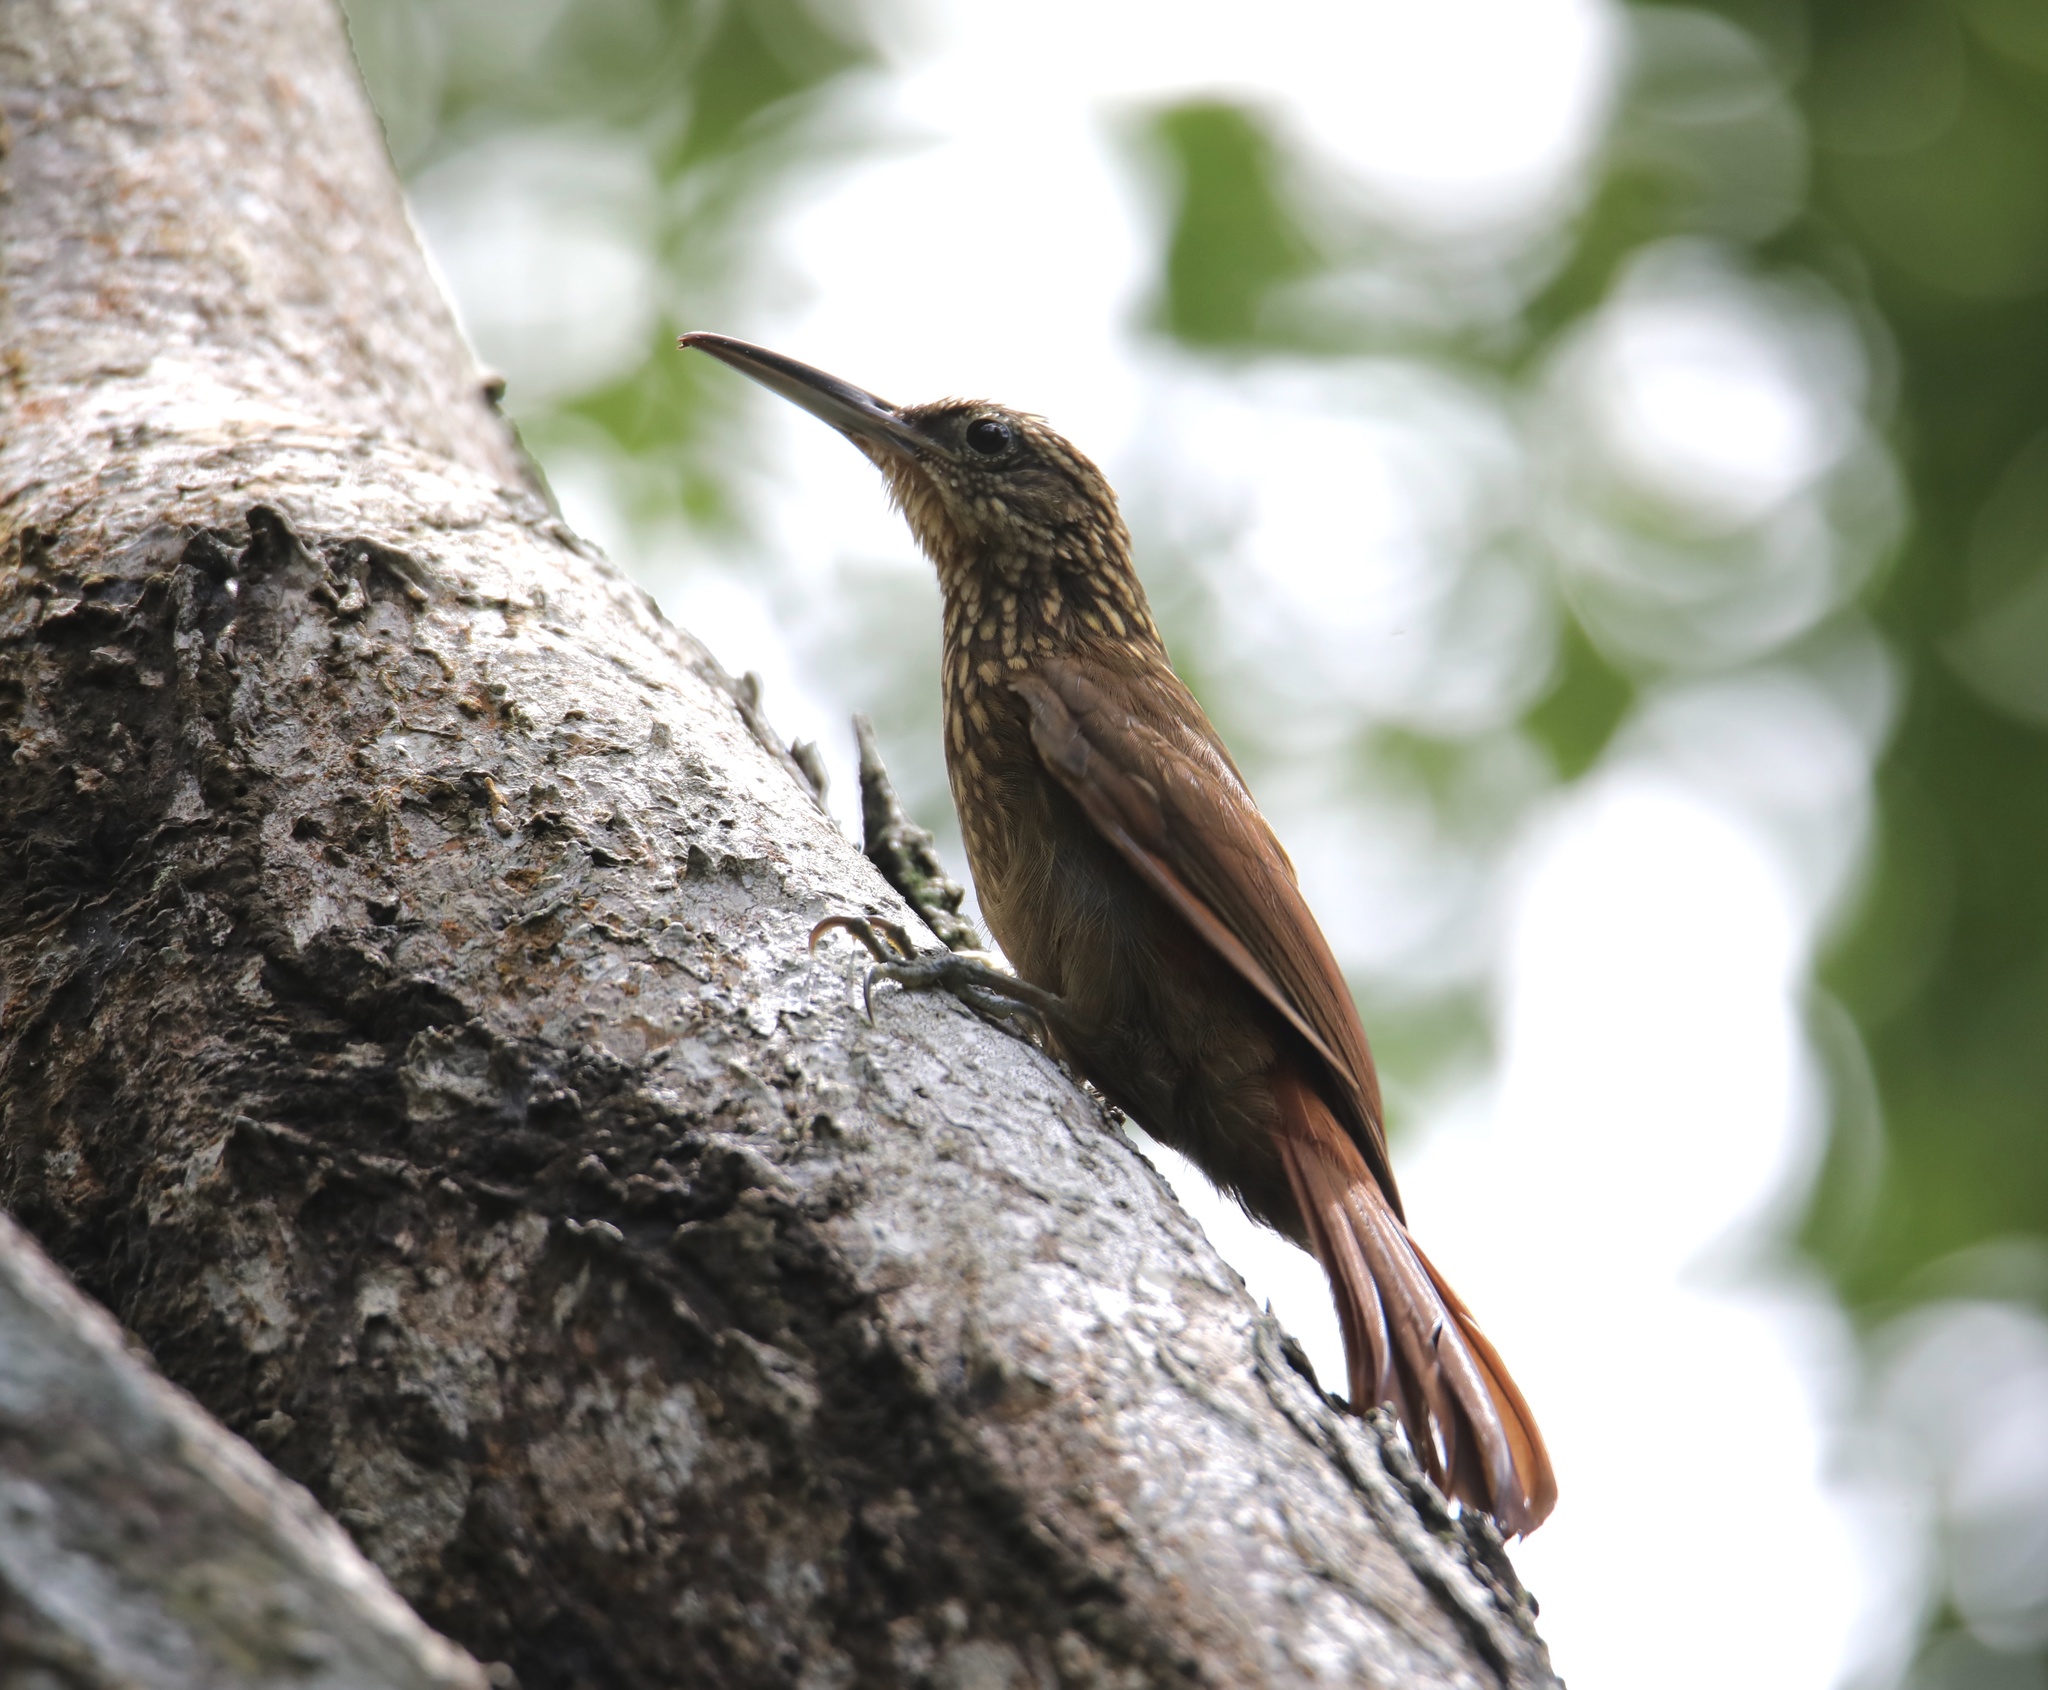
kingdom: Animalia
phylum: Chordata
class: Aves
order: Passeriformes
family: Furnariidae
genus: Xiphorhynchus
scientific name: Xiphorhynchus susurrans
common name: Cocoa woodcreeper
